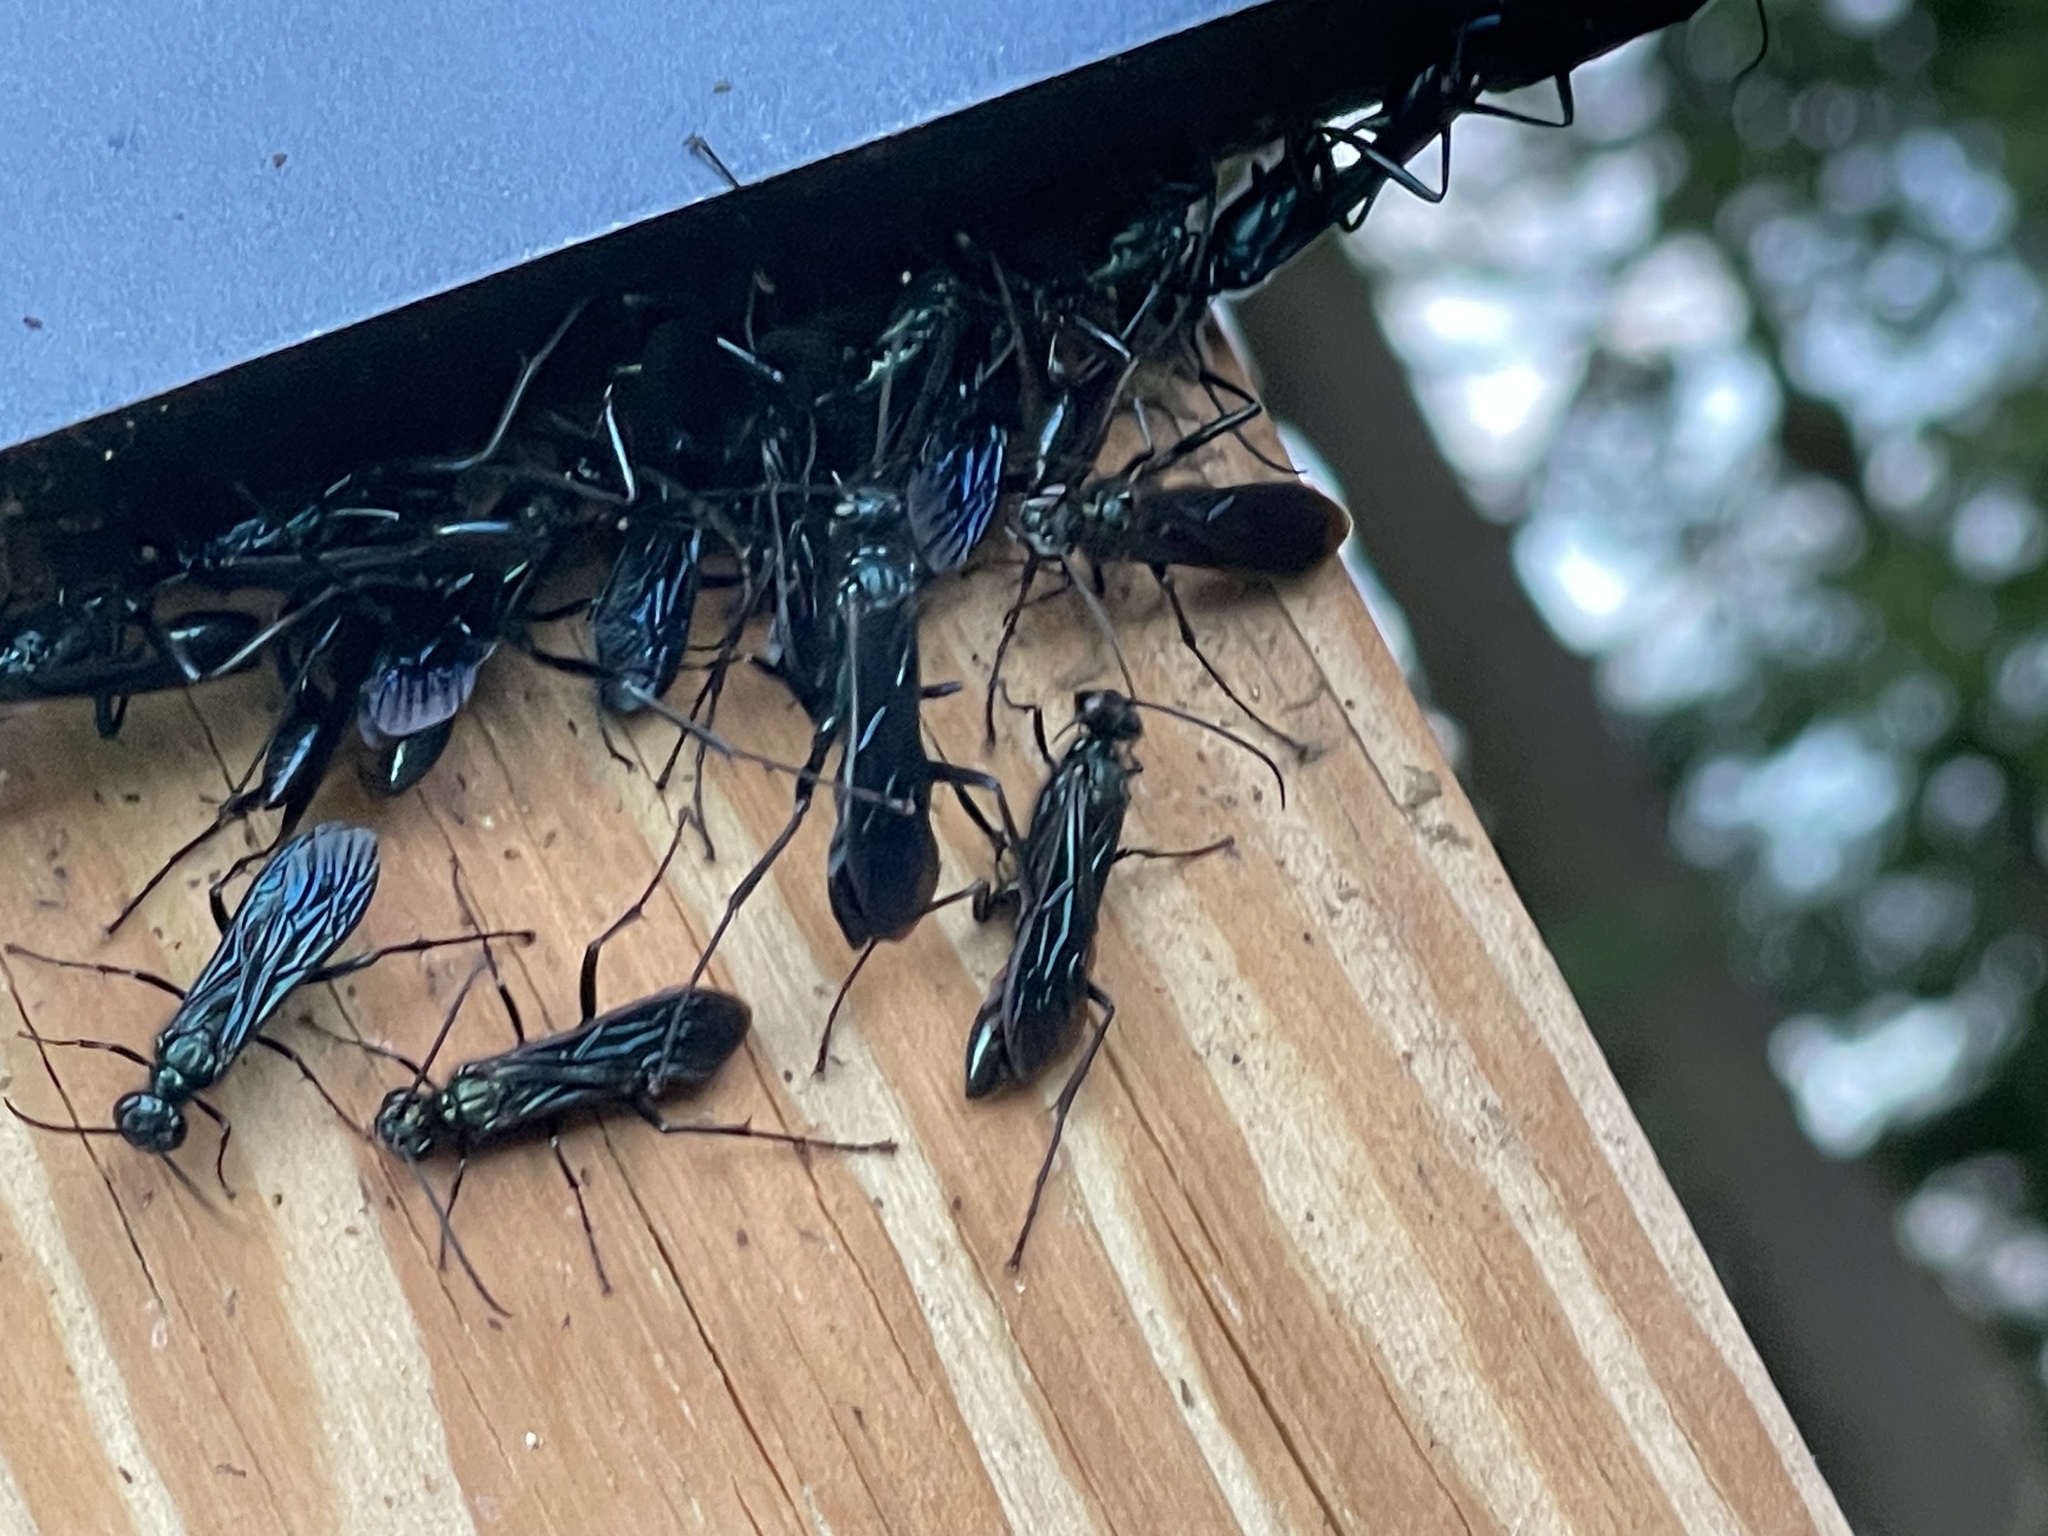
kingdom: Animalia
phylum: Arthropoda
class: Insecta
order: Hymenoptera
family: Sphecidae
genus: Chalybion
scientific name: Chalybion californicum
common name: Mud dauber
